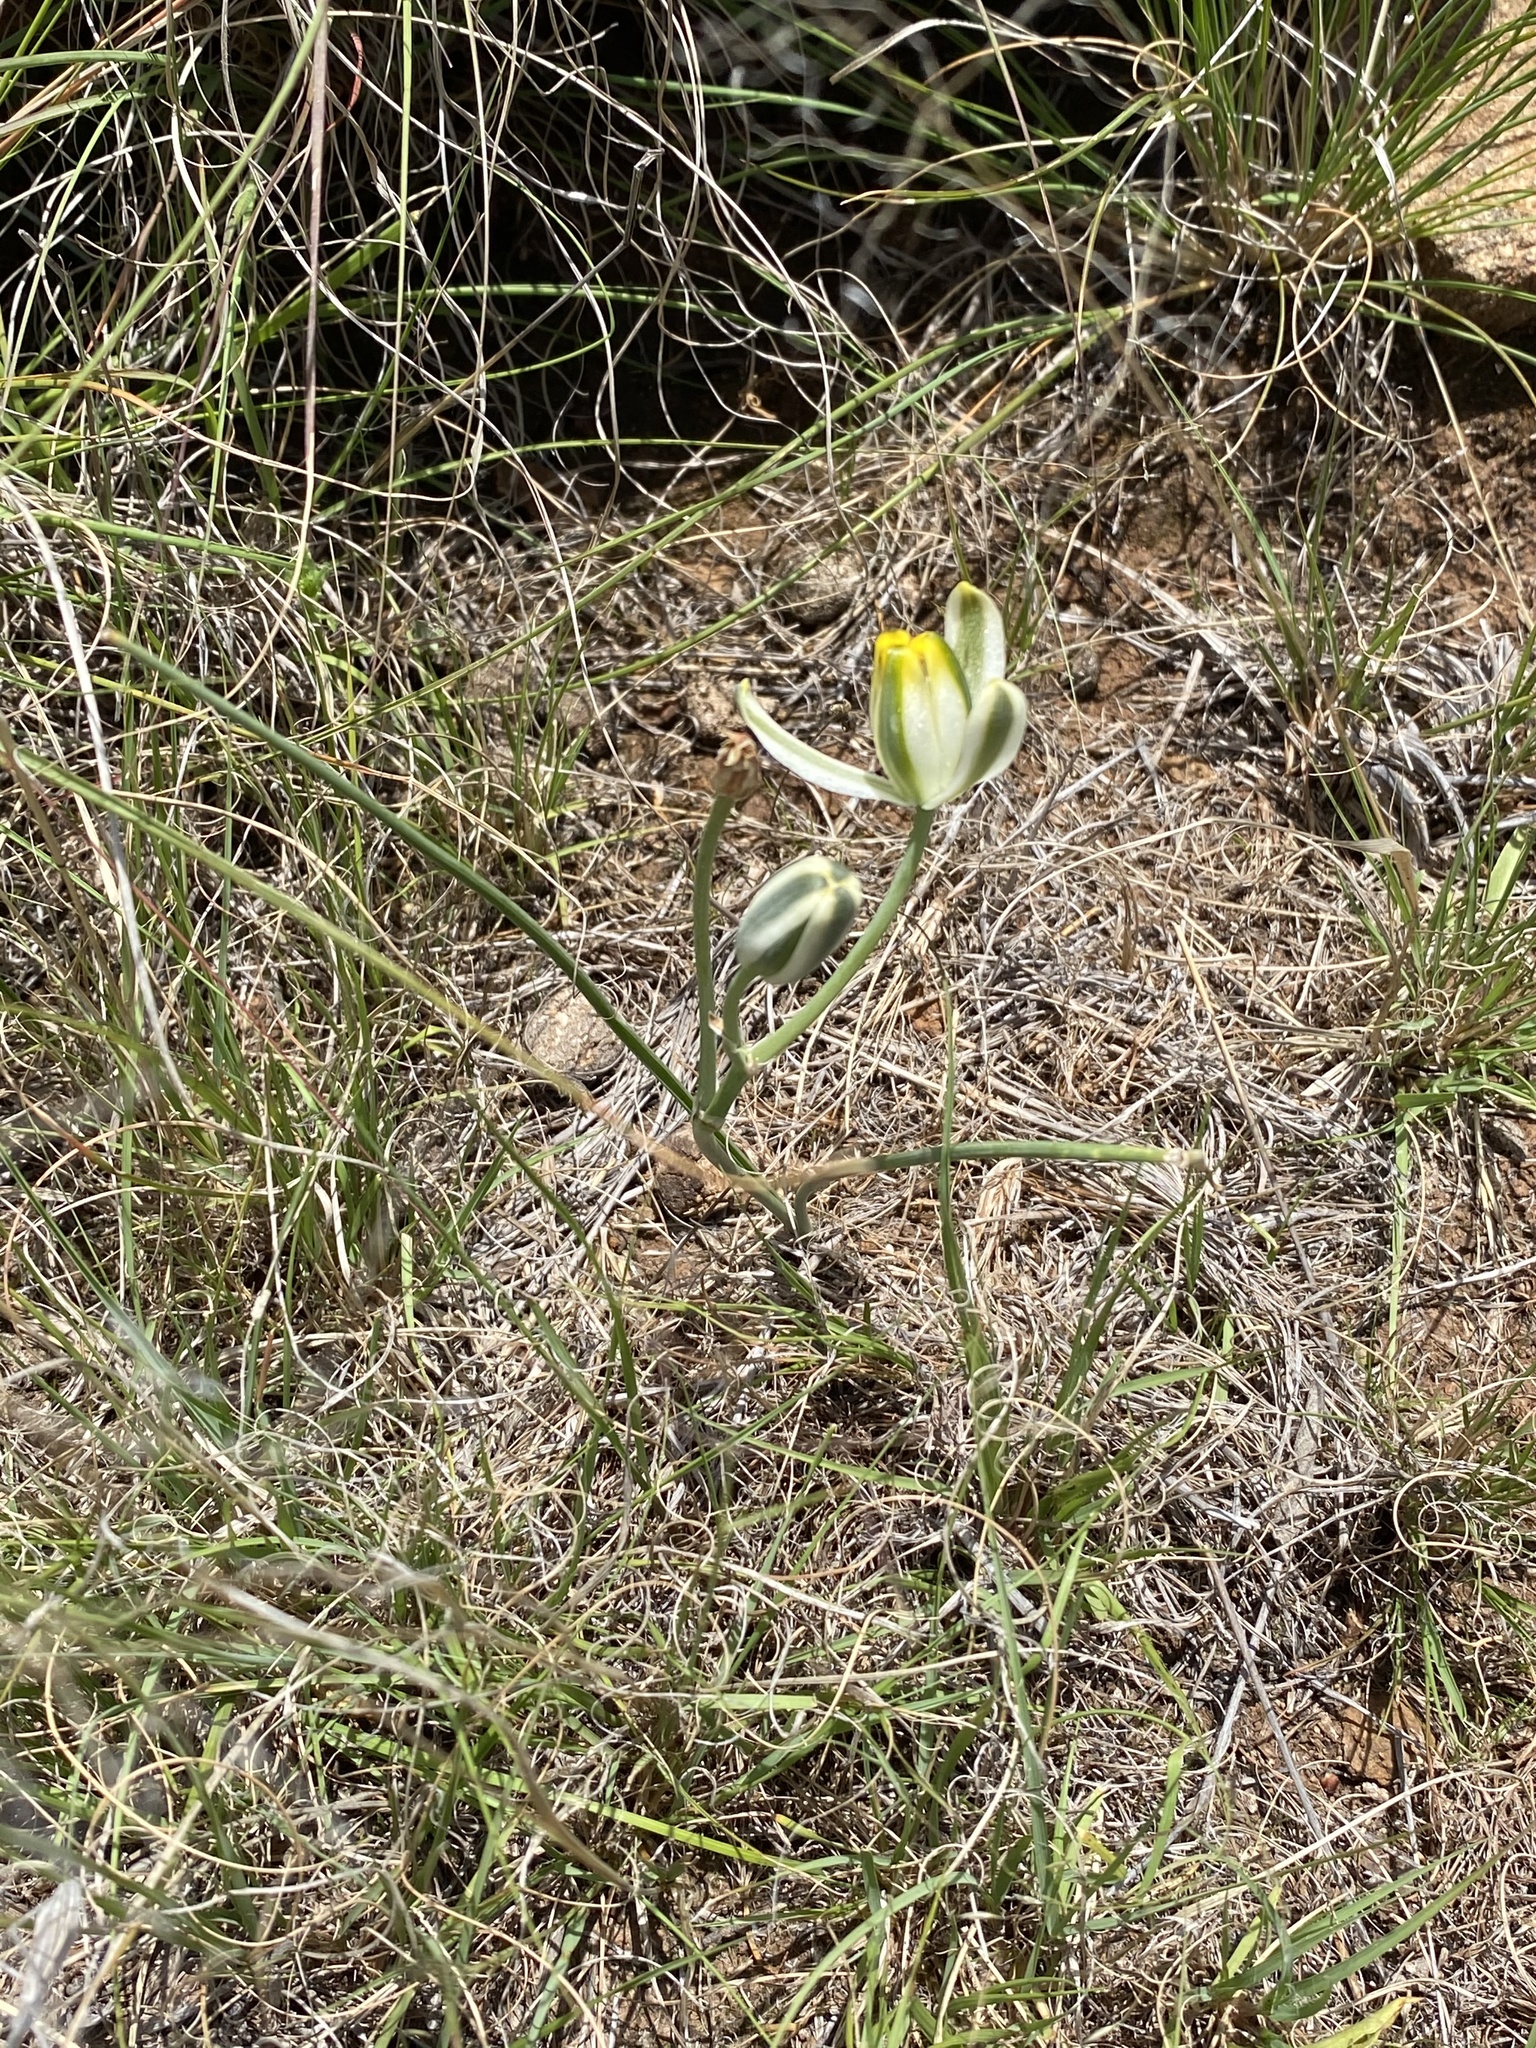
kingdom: Plantae
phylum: Tracheophyta
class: Liliopsida
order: Asparagales
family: Asparagaceae
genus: Albuca
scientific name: Albuca humilis
